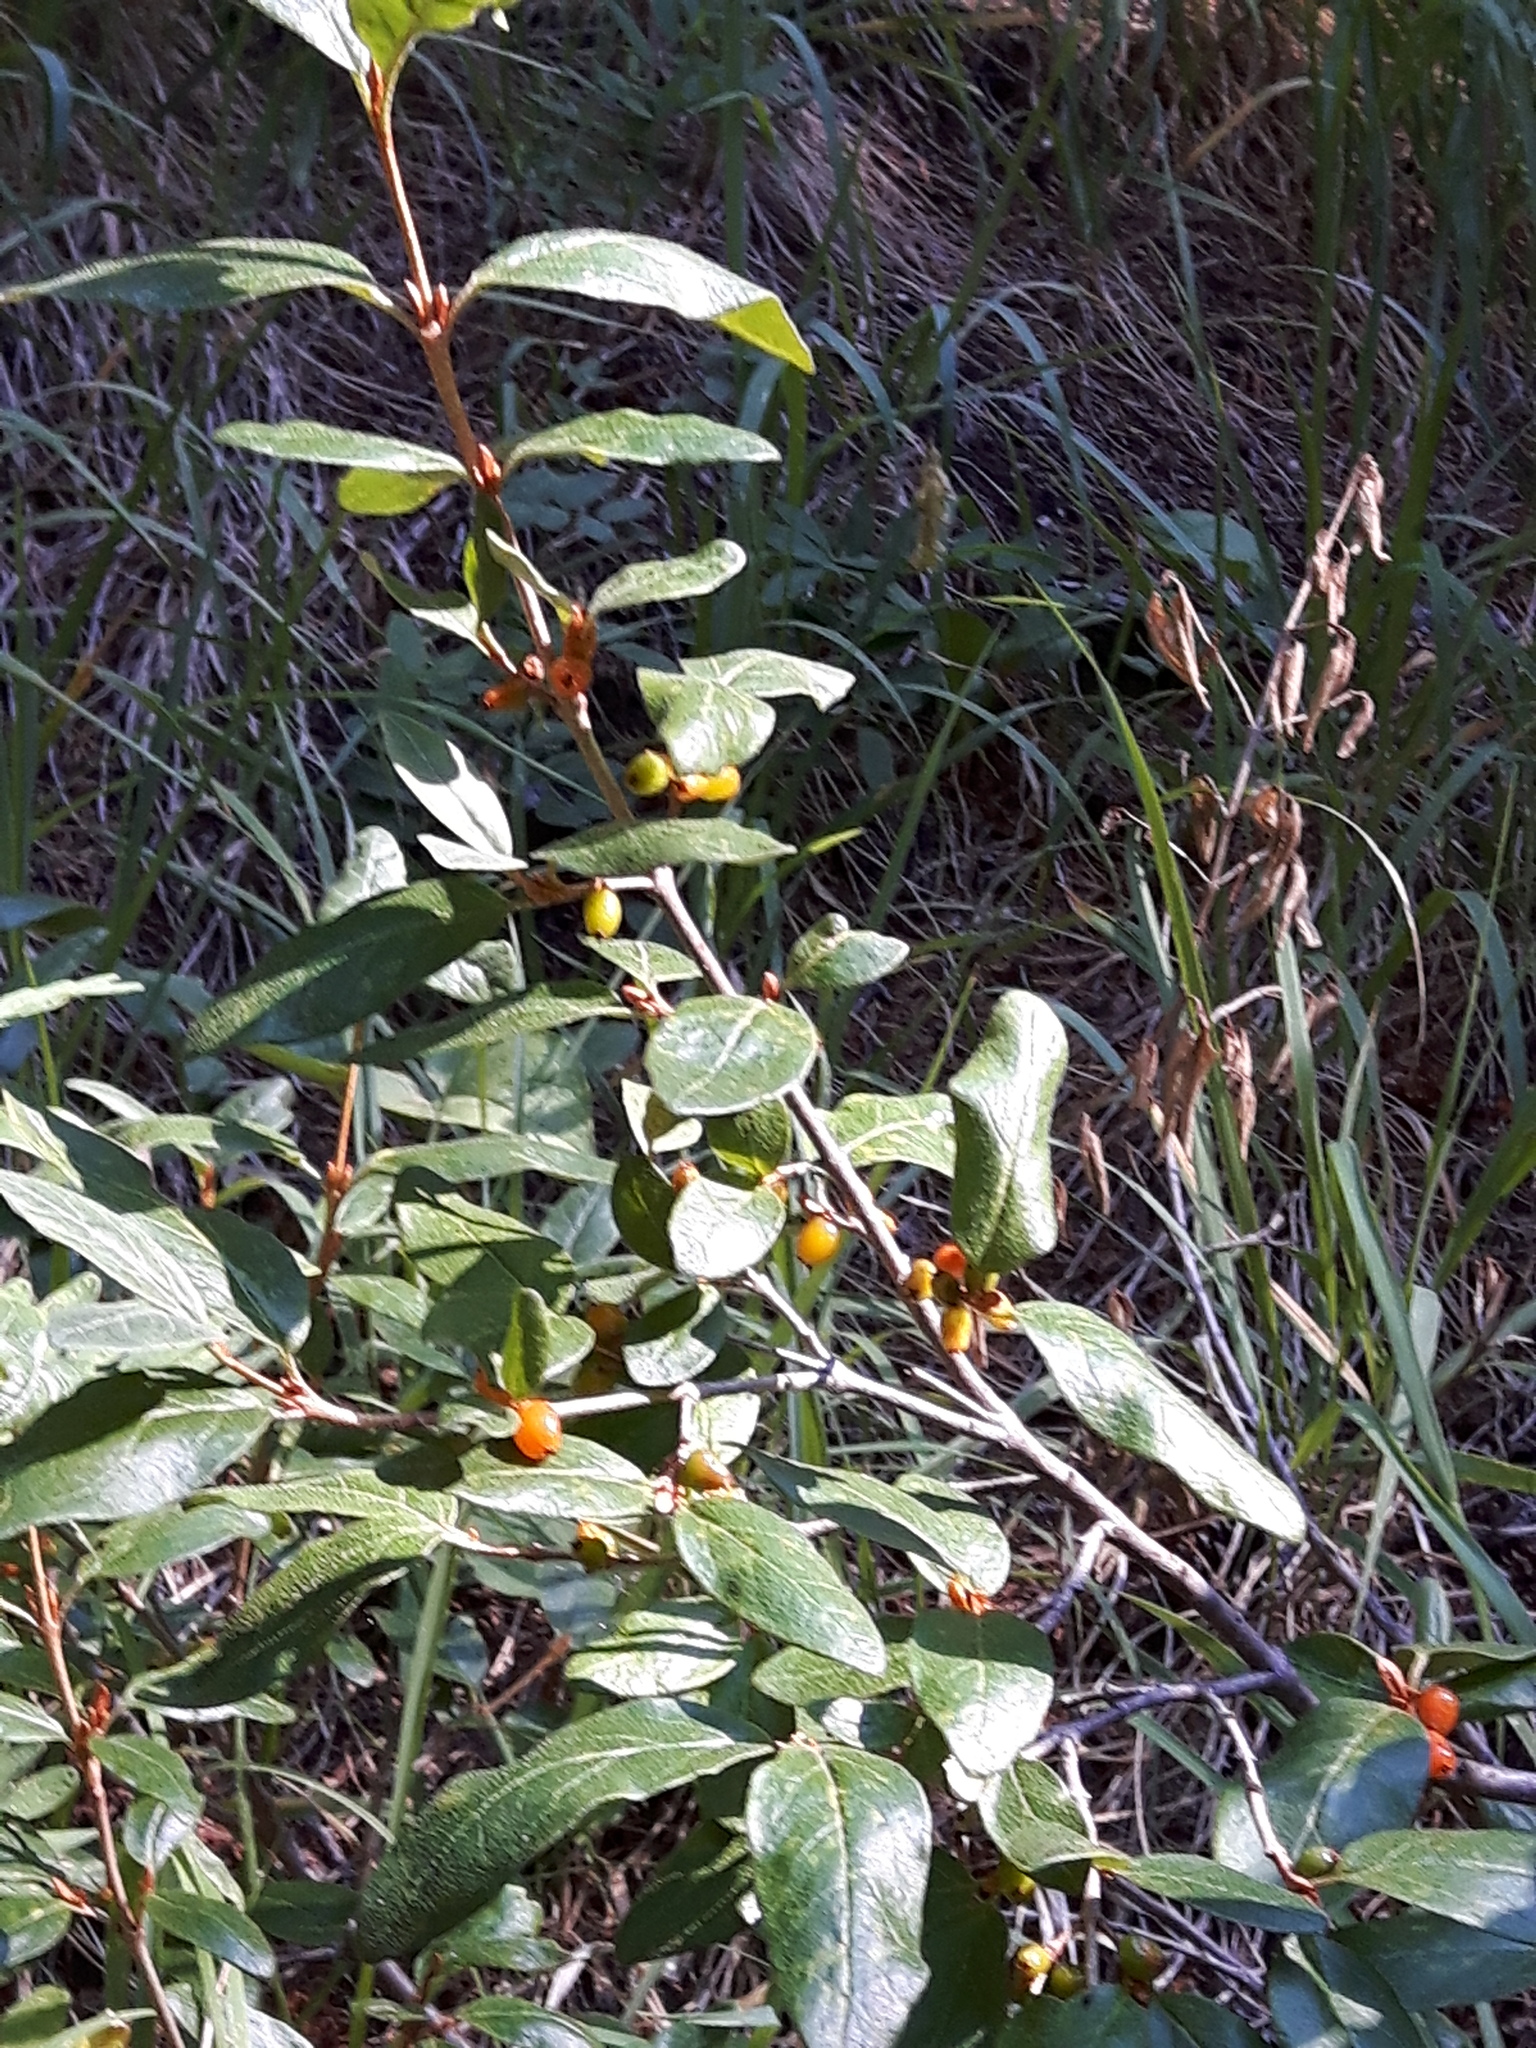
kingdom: Plantae
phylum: Tracheophyta
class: Magnoliopsida
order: Rosales
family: Elaeagnaceae
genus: Shepherdia
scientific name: Shepherdia canadensis
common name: Soapberry
